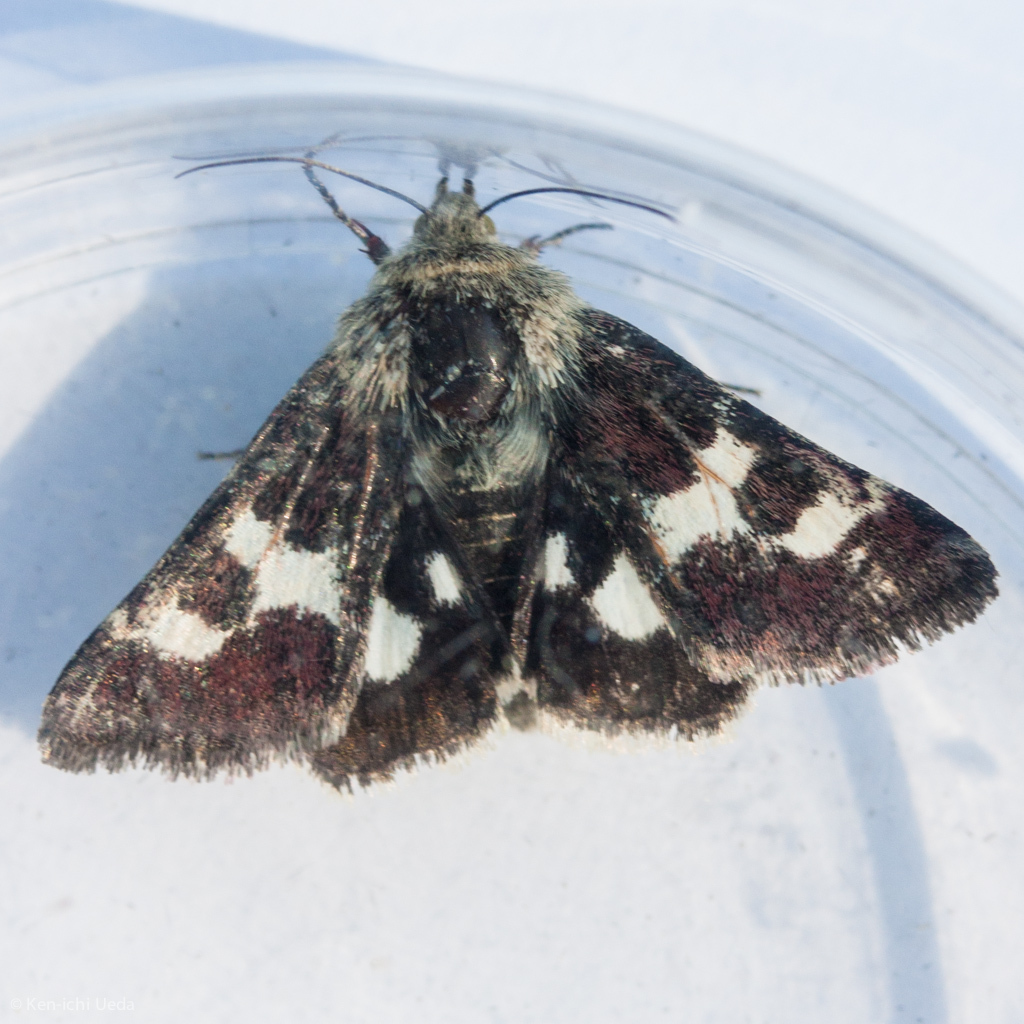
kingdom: Animalia
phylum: Arthropoda
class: Insecta
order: Lepidoptera
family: Noctuidae
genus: Schinia
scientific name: Schinia suetus
